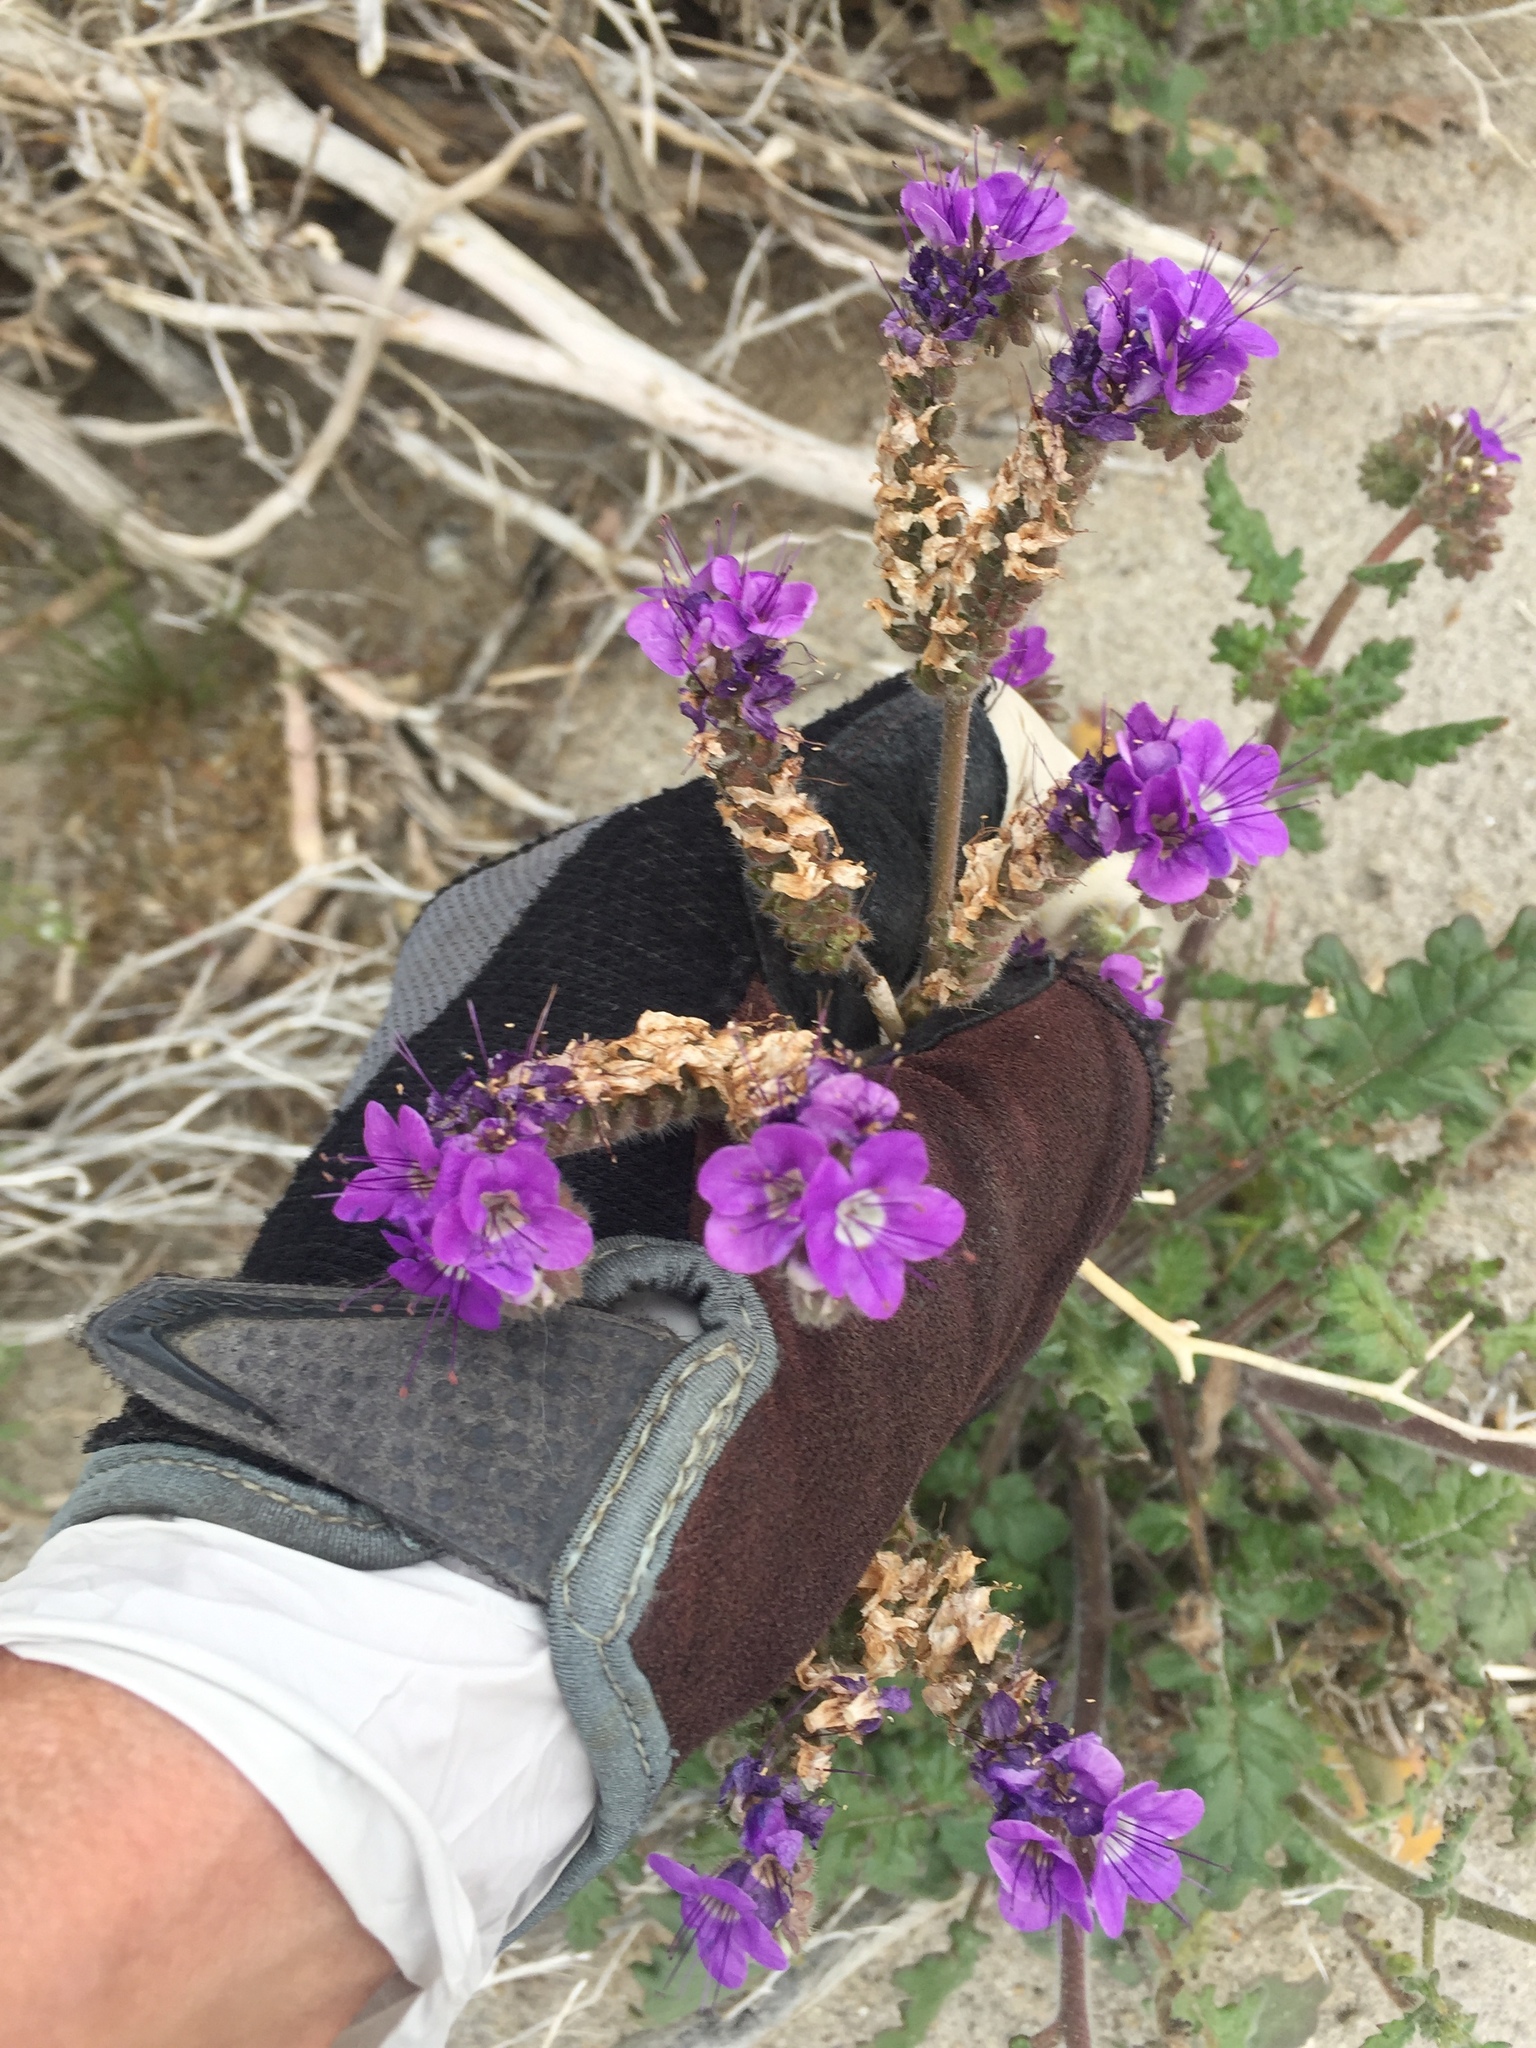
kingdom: Plantae
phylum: Tracheophyta
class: Magnoliopsida
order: Boraginales
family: Hydrophyllaceae
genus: Phacelia
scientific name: Phacelia crenulata
